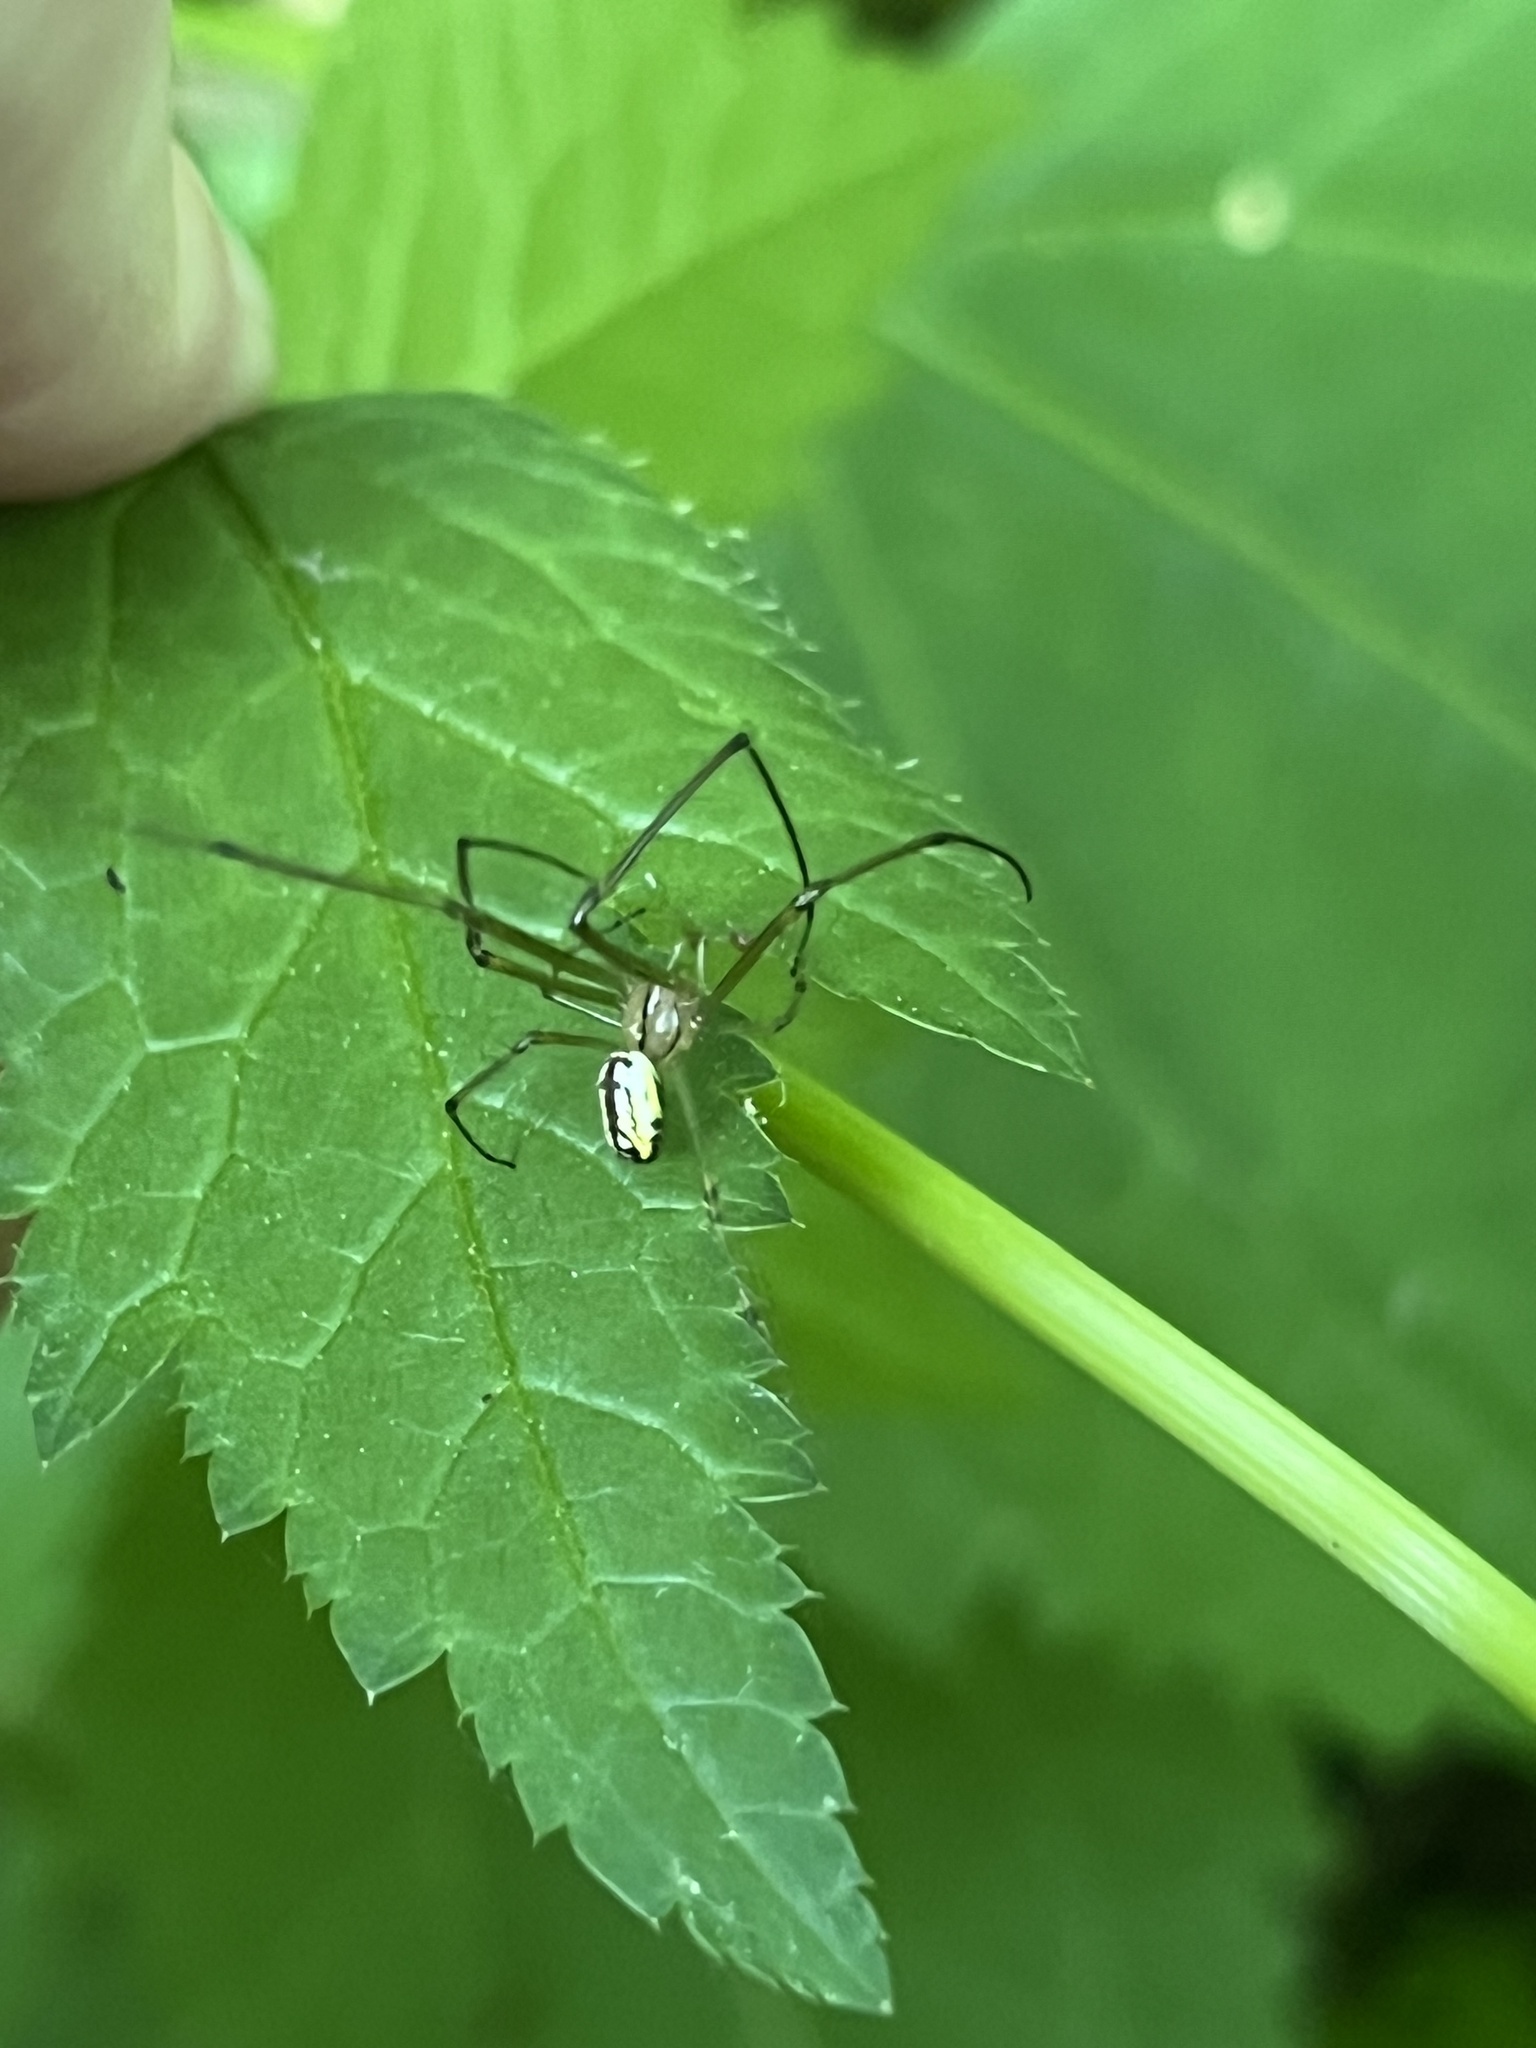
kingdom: Animalia
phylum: Arthropoda
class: Arachnida
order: Araneae
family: Tetragnathidae
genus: Leucauge
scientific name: Leucauge venusta
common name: Longjawed orb weavers
